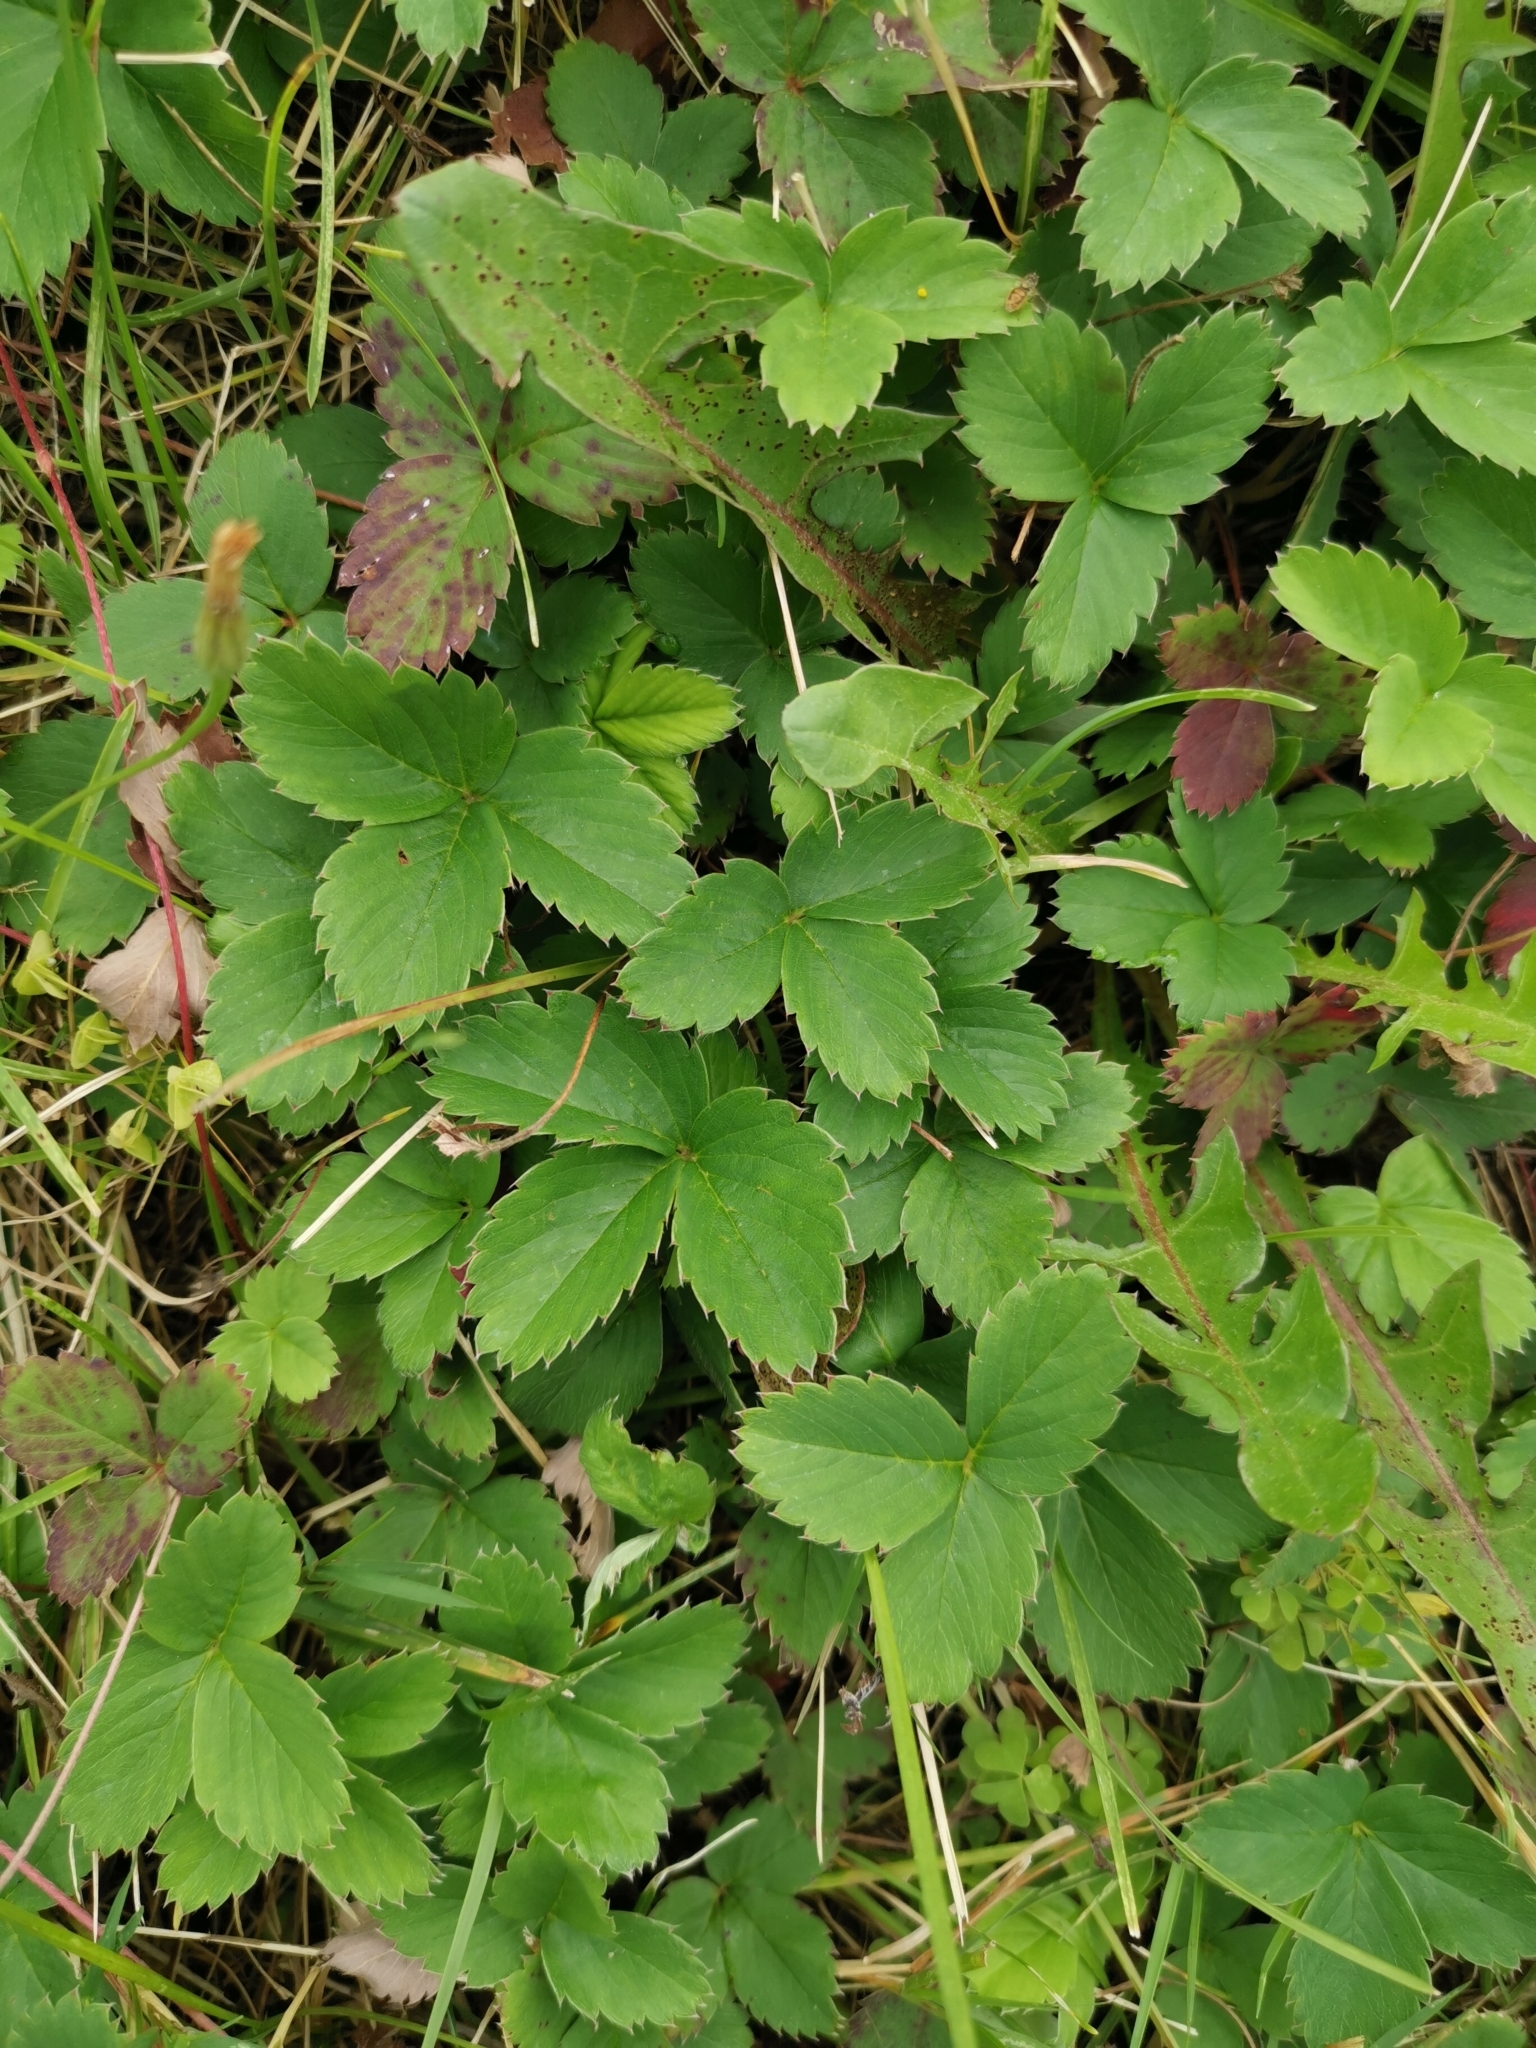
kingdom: Plantae
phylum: Tracheophyta
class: Magnoliopsida
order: Rosales
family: Rosaceae
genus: Fragaria
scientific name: Fragaria virginiana
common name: Thickleaved wild strawberry
